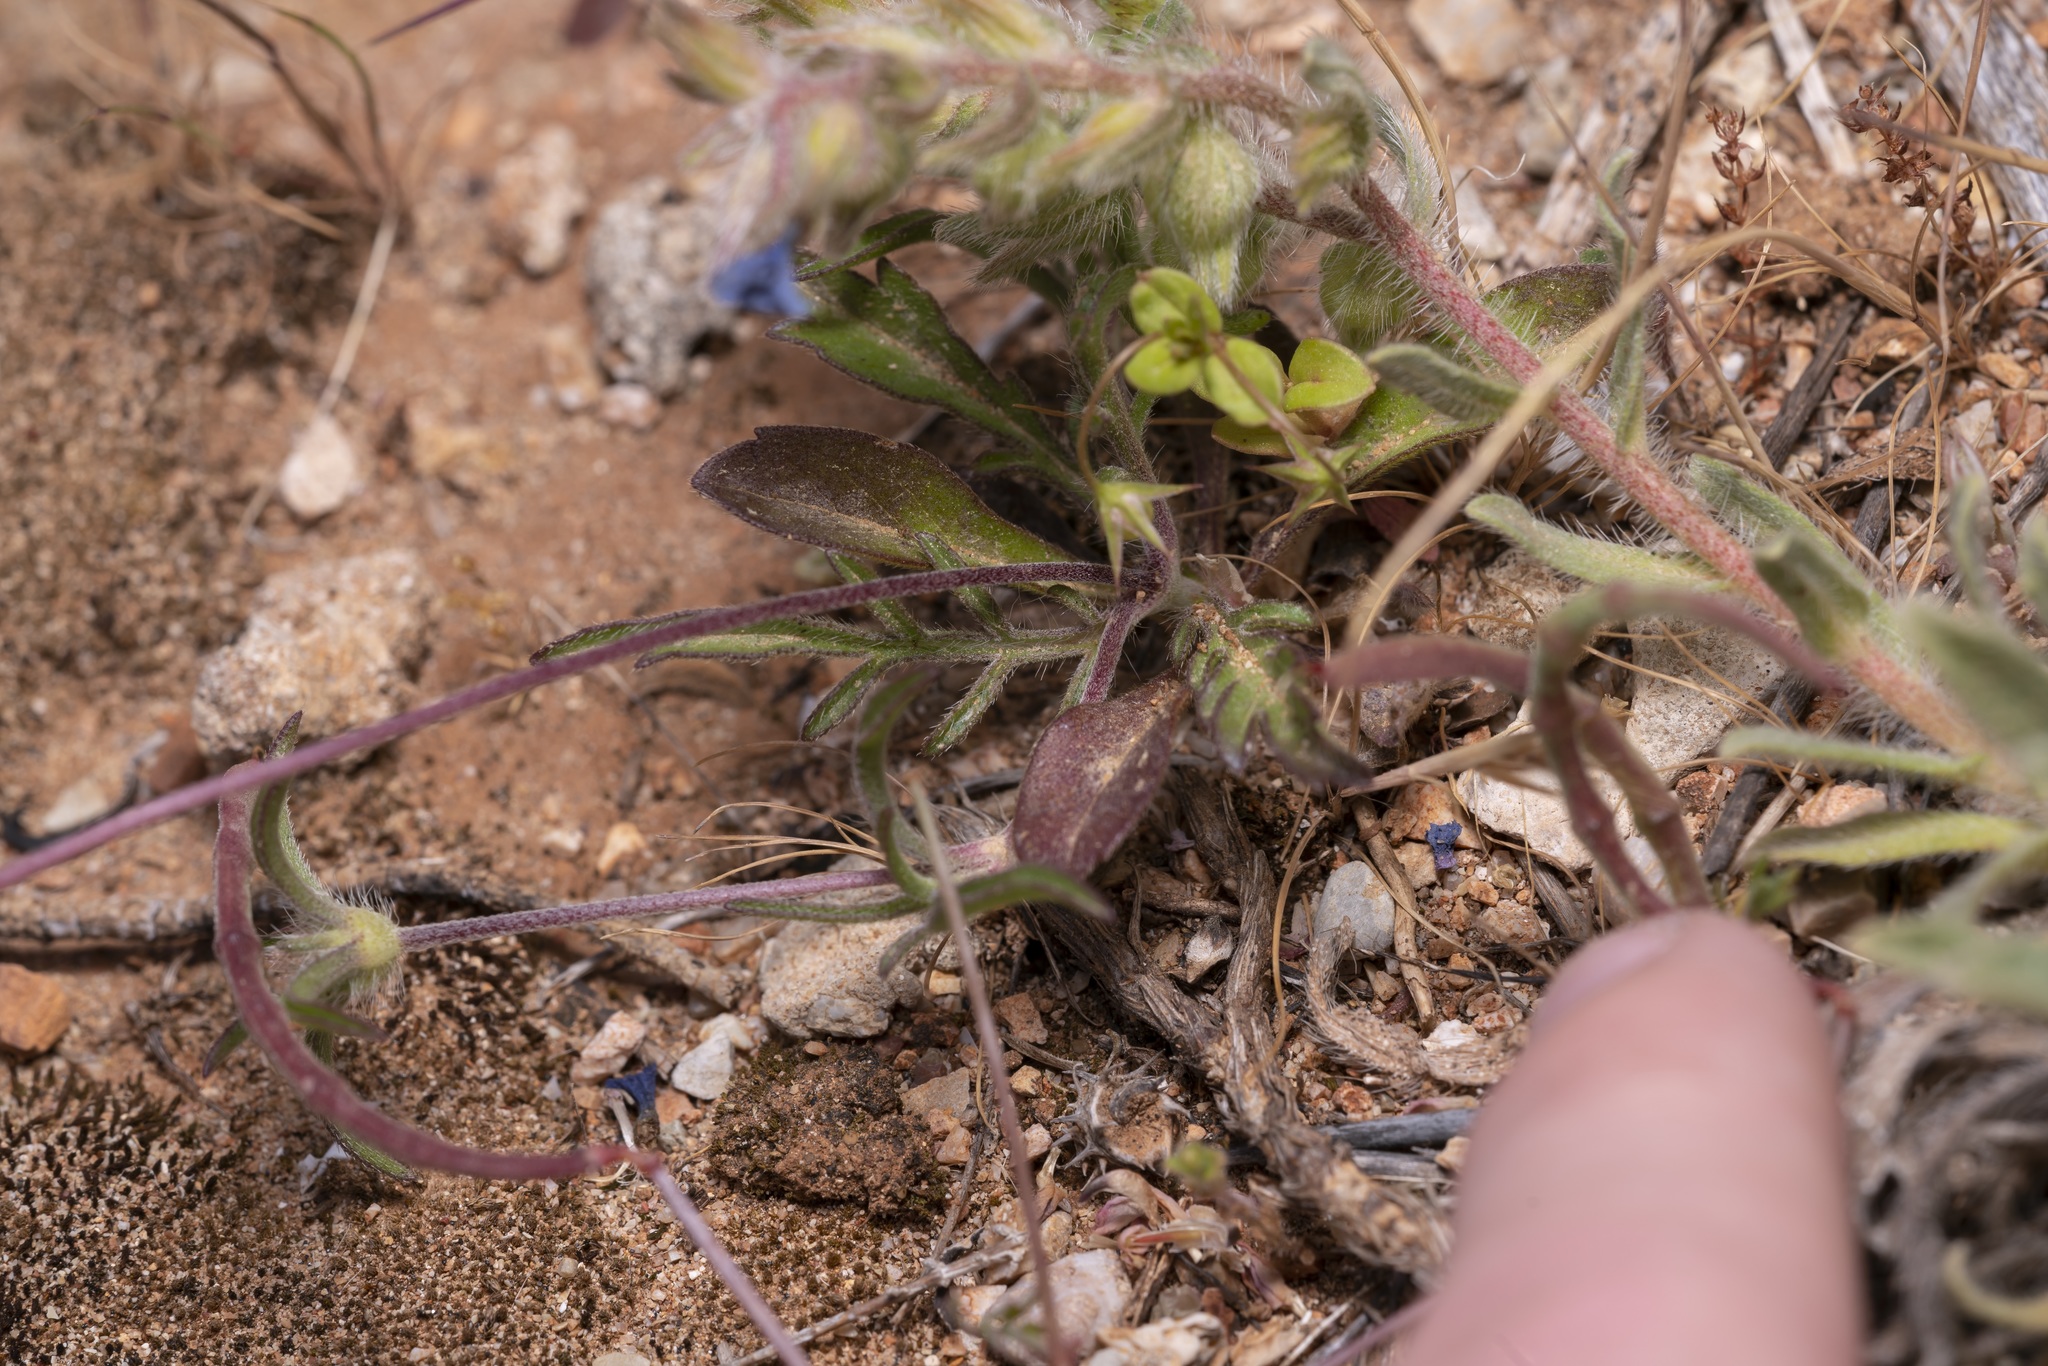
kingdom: Plantae
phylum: Tracheophyta
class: Magnoliopsida
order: Dipsacales
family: Caprifoliaceae
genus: Lomelosia
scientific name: Lomelosia divaricata
